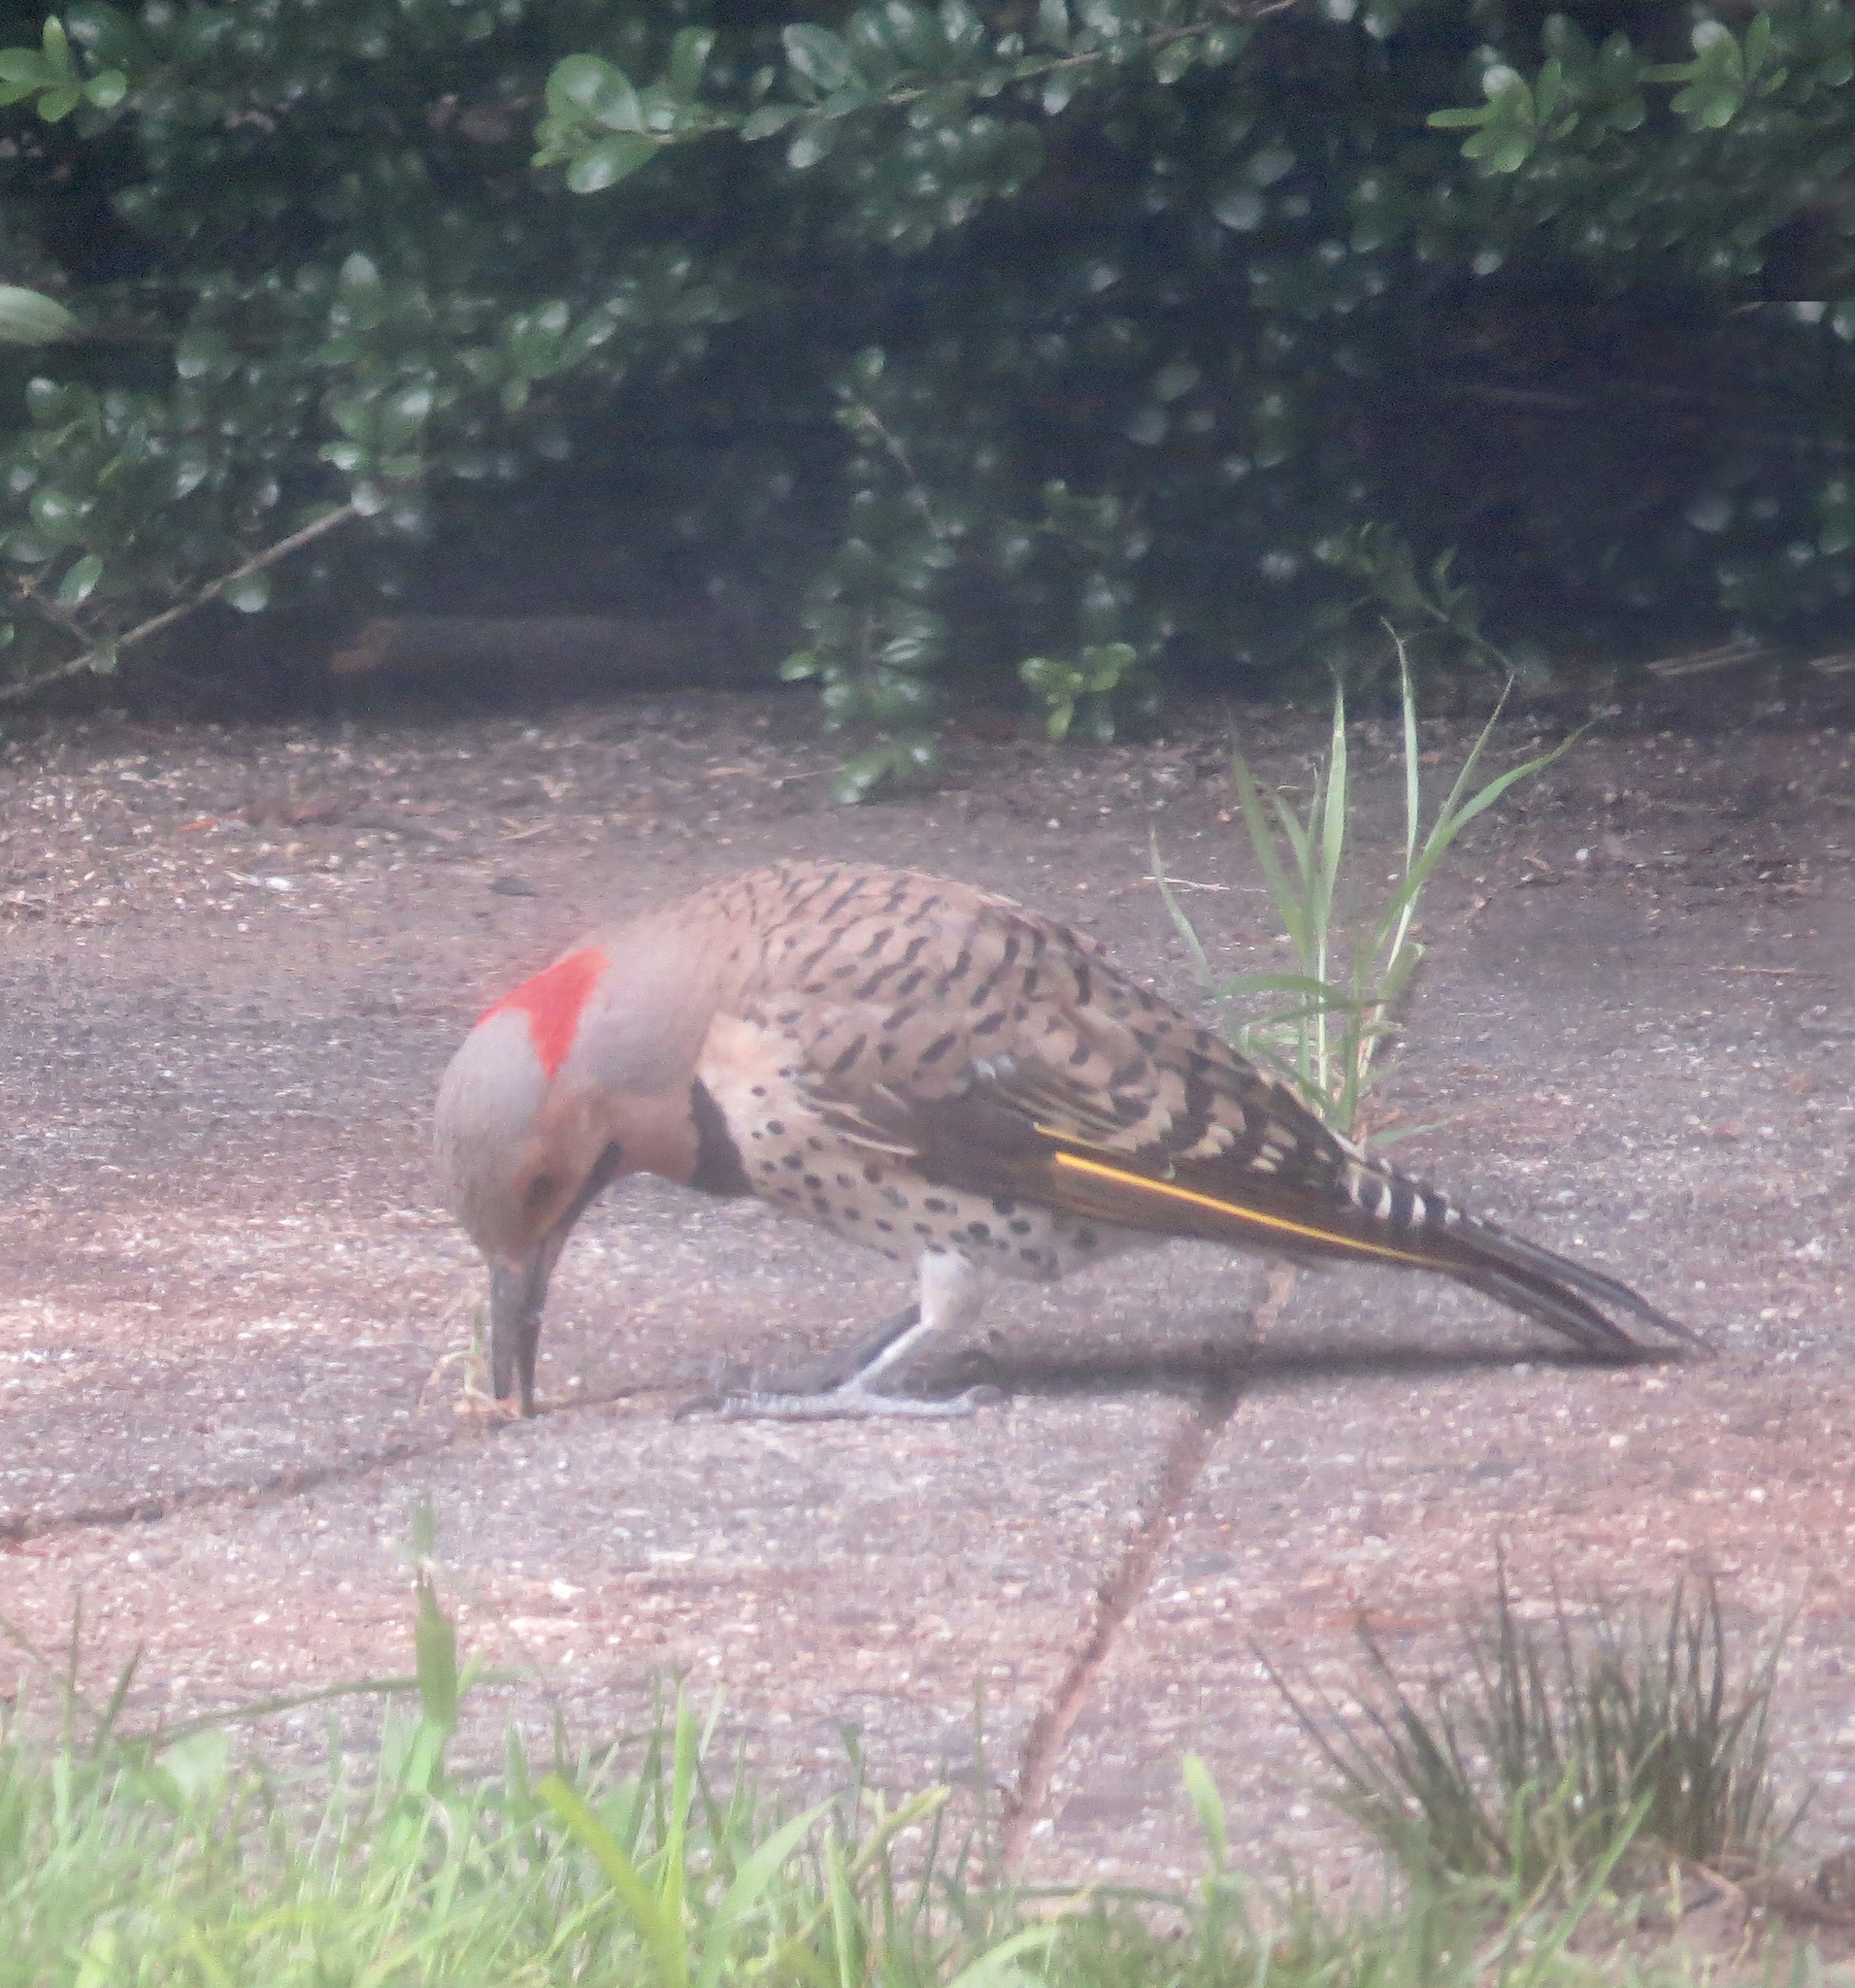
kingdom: Animalia
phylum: Chordata
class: Aves
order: Piciformes
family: Picidae
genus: Colaptes
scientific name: Colaptes auratus
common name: Northern flicker
